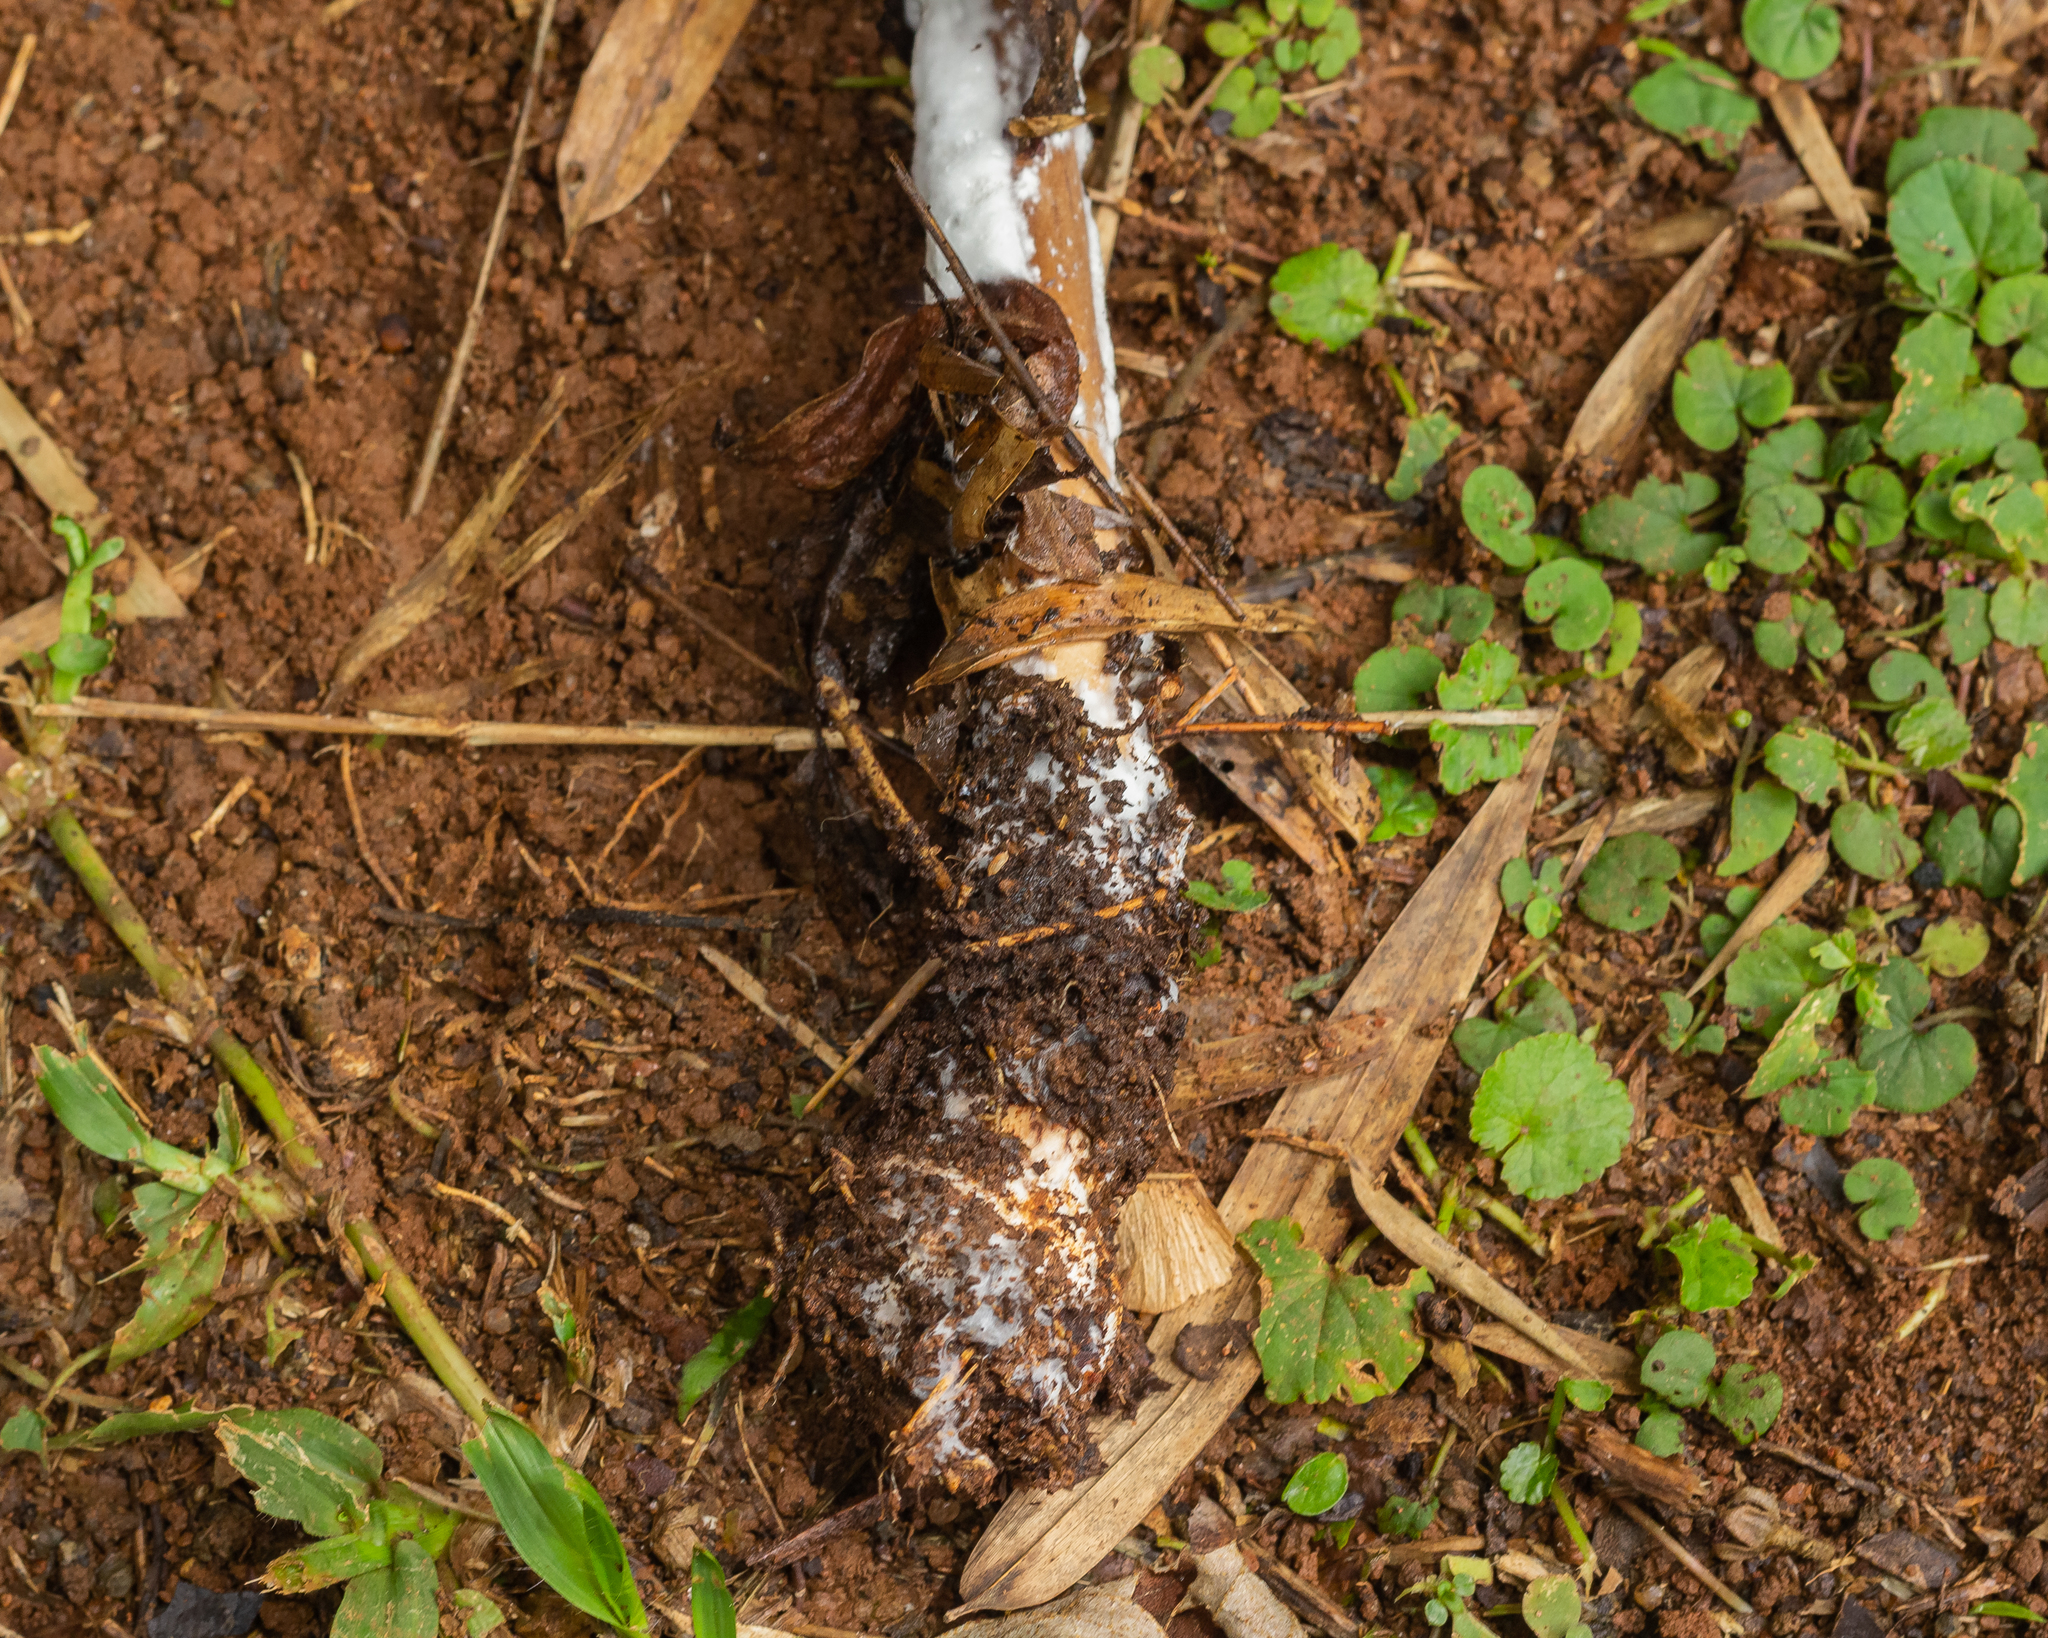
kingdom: Fungi
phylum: Basidiomycota
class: Agaricomycetes
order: Agaricales
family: Agaricaceae
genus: Macrolepiota
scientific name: Macrolepiota capelariae
